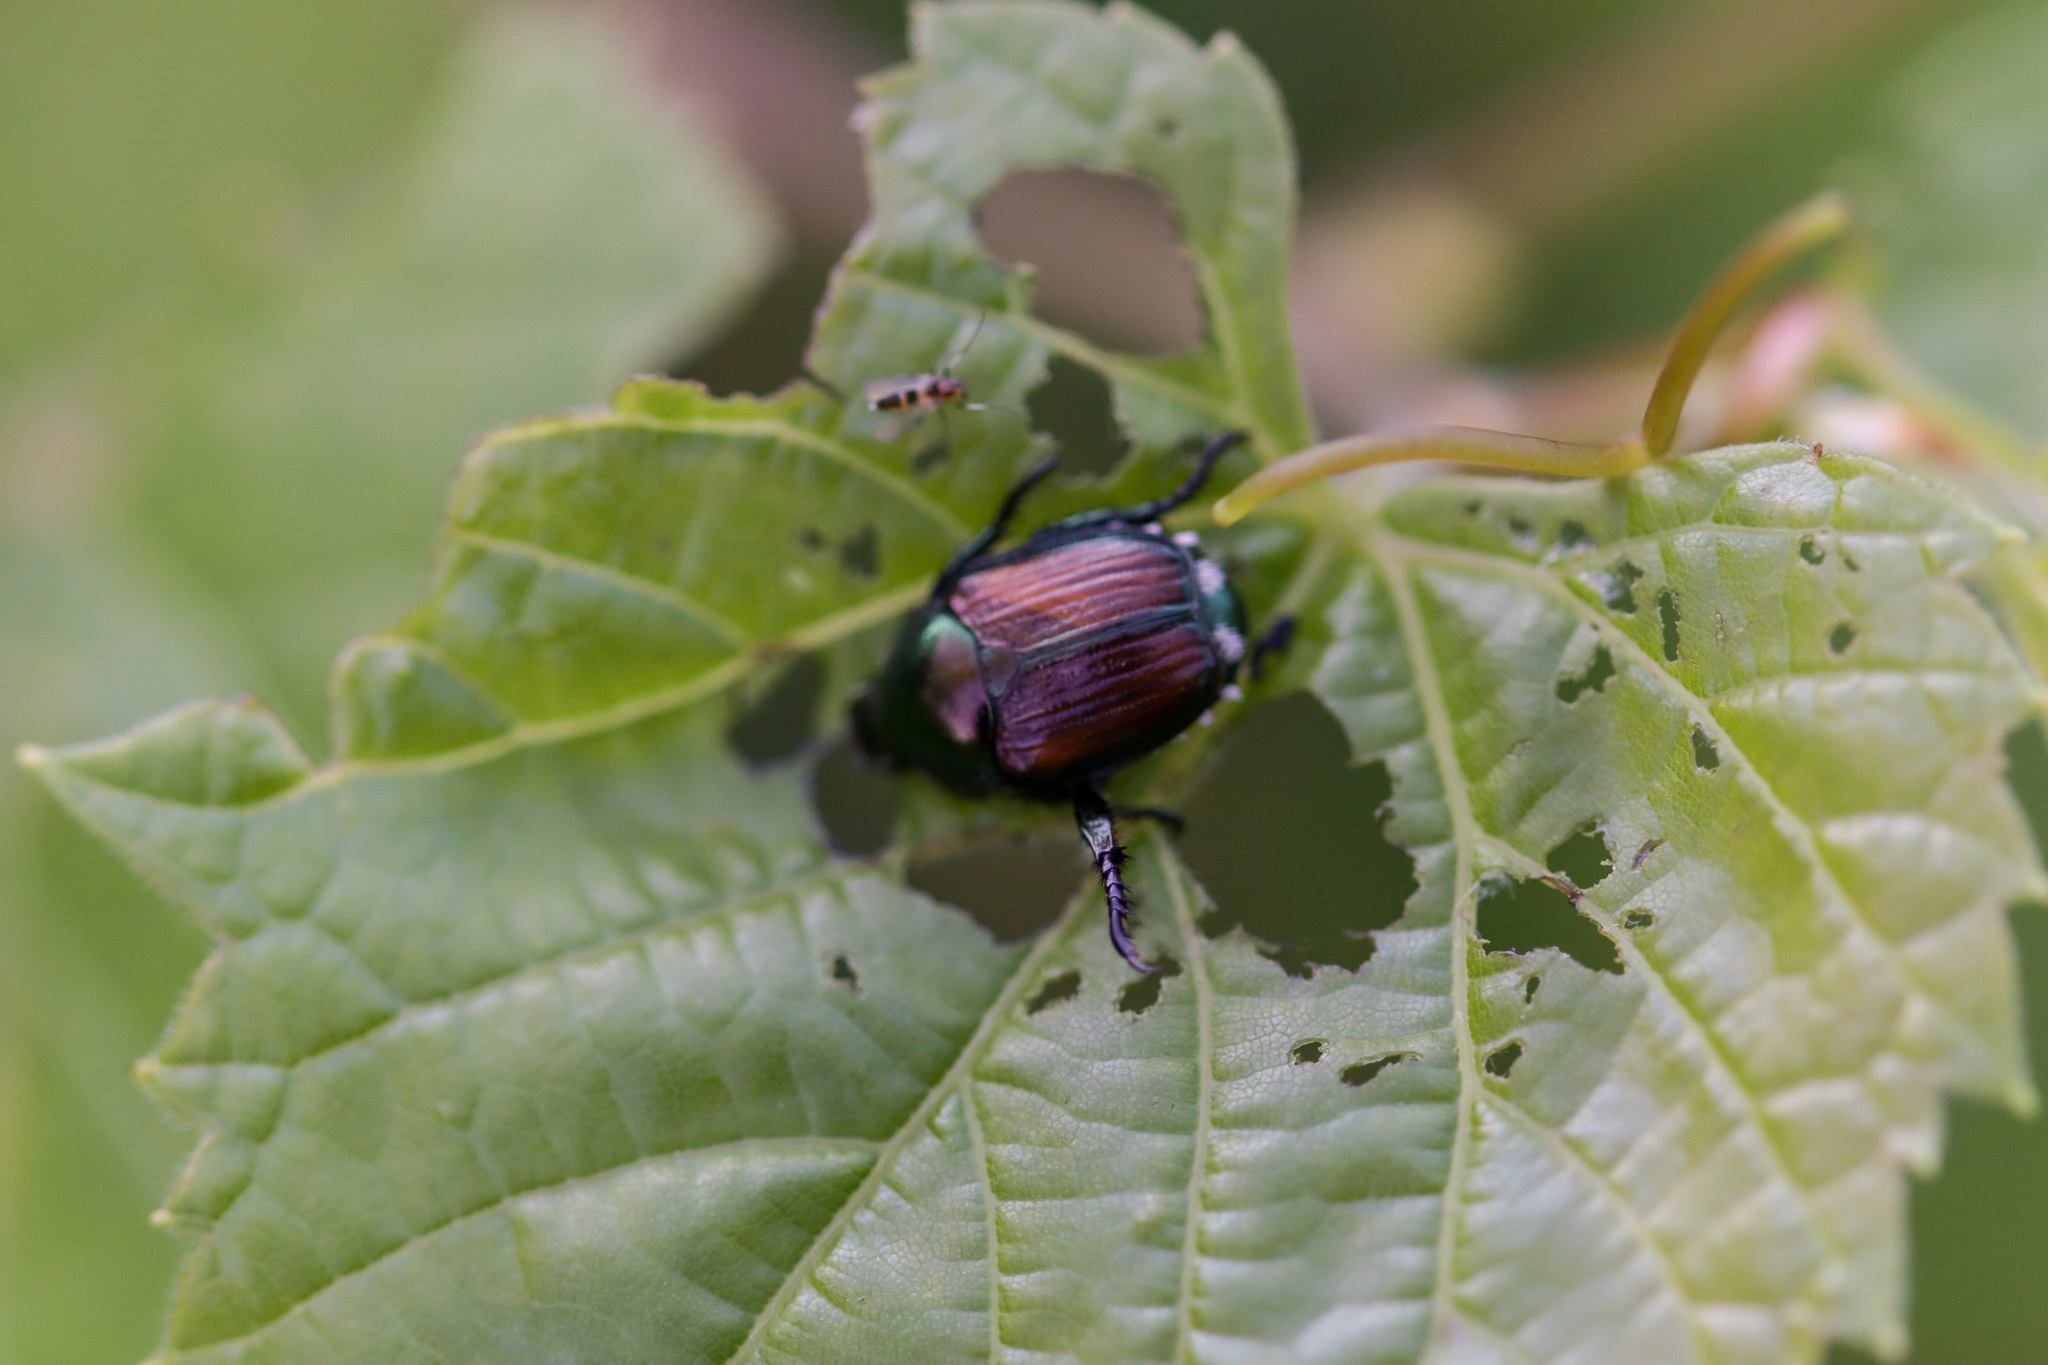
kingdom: Animalia
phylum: Arthropoda
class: Insecta
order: Coleoptera
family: Scarabaeidae
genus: Popillia
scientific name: Popillia japonica
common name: Japanese beetle
